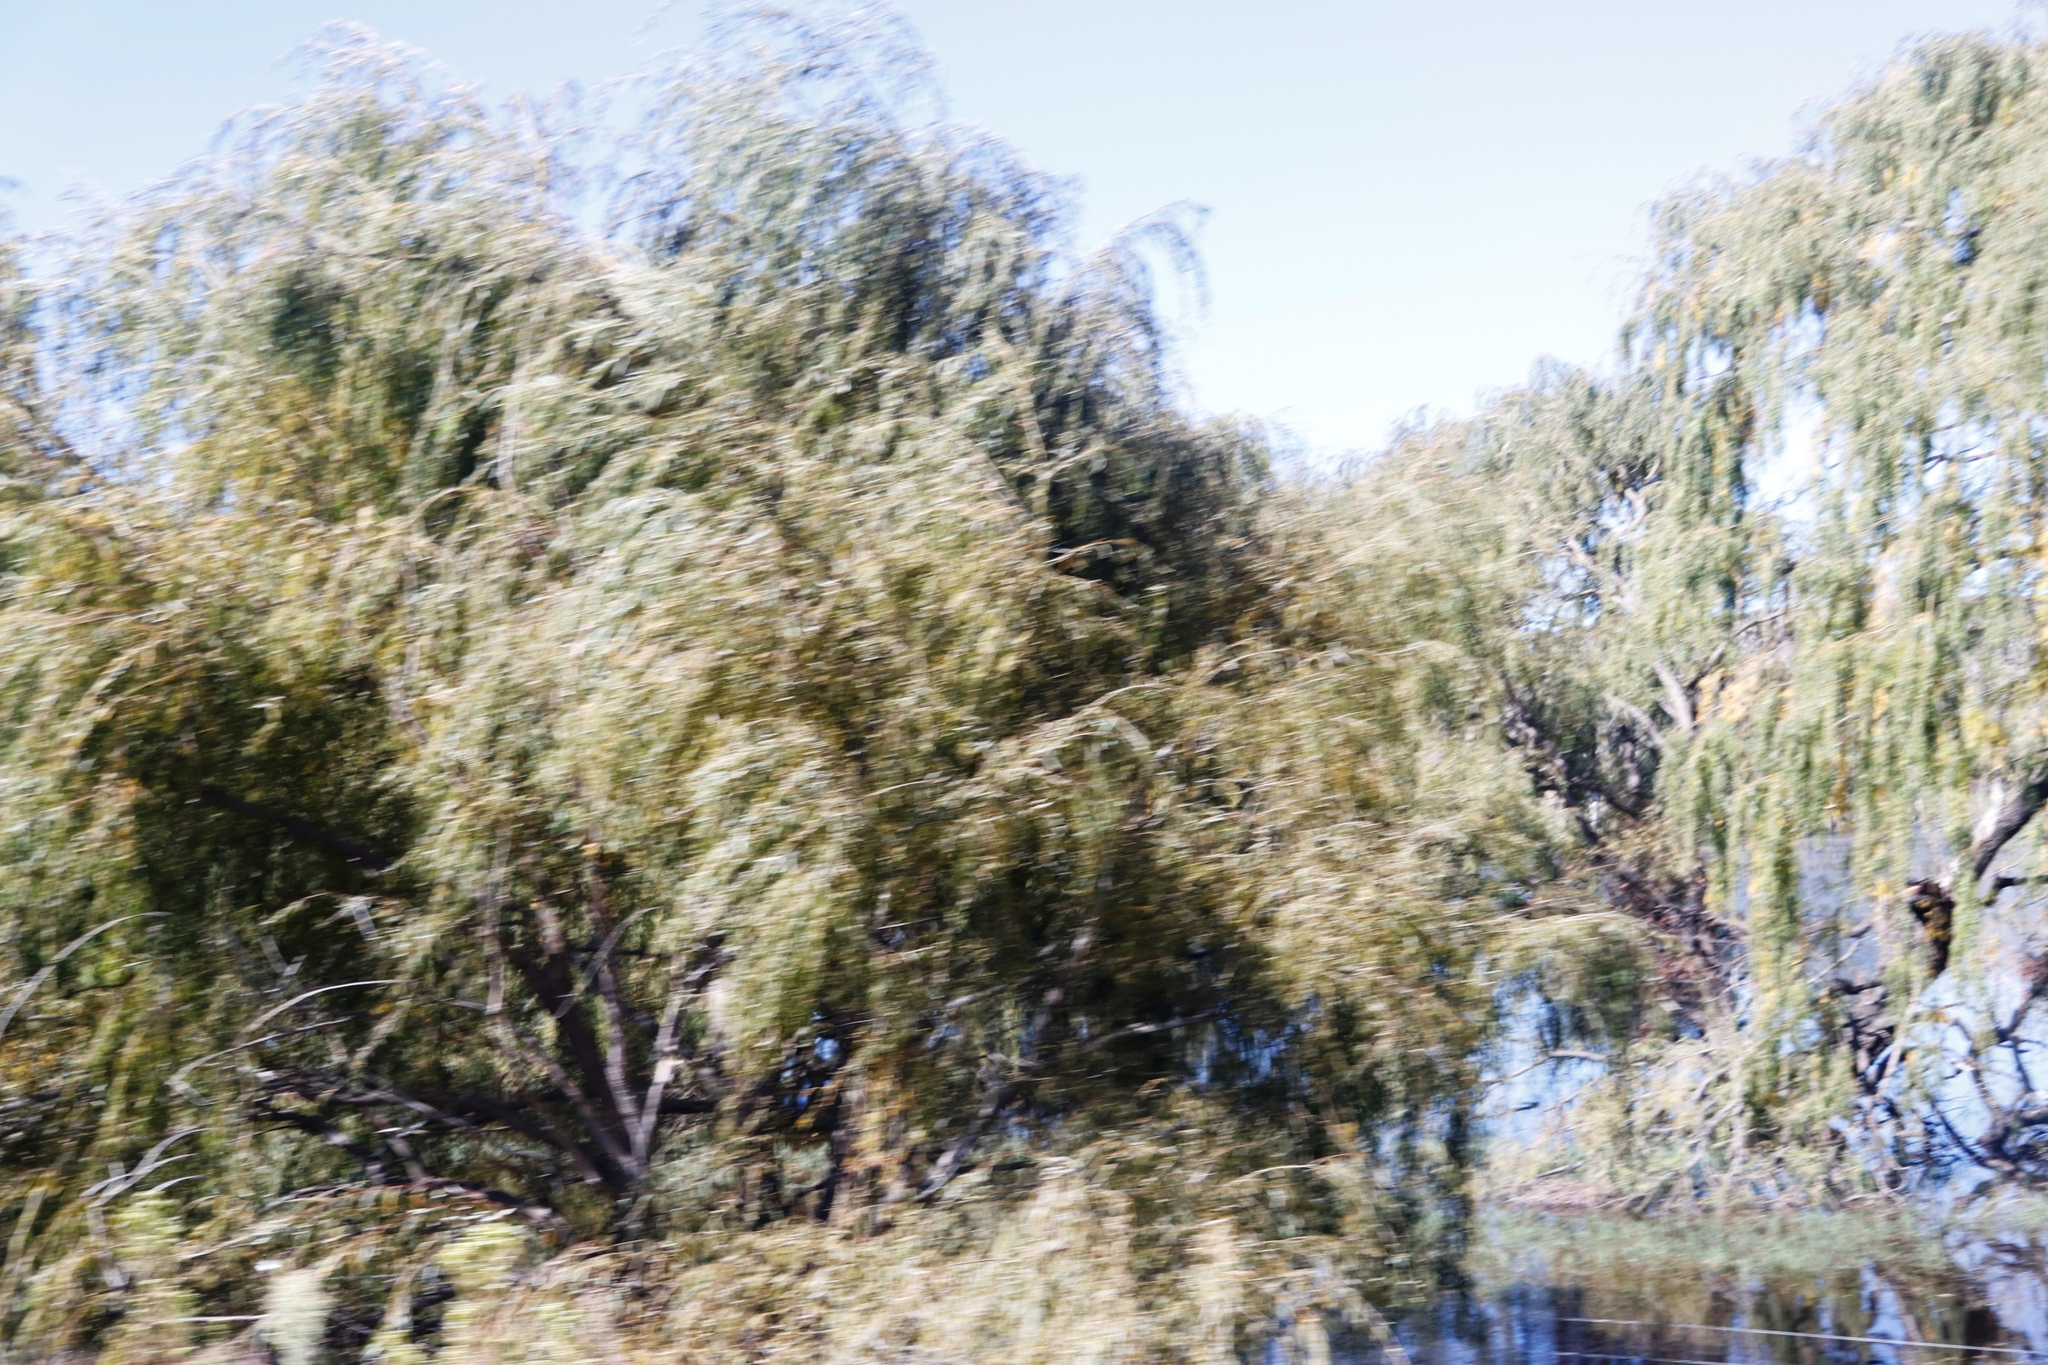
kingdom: Plantae
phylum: Tracheophyta
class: Magnoliopsida
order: Malpighiales
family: Salicaceae
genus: Salix
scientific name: Salix babylonica
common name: Weeping willow
